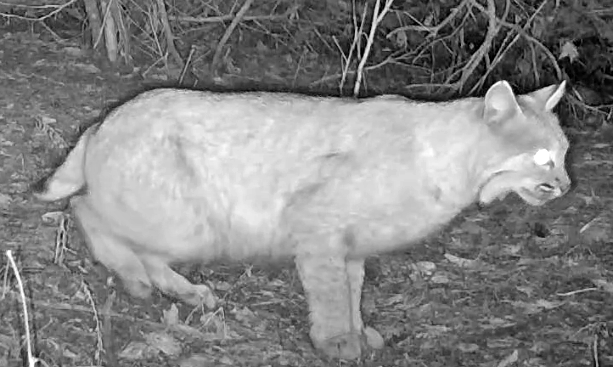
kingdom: Animalia
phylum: Chordata
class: Mammalia
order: Carnivora
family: Felidae
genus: Lynx
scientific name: Lynx rufus
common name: Bobcat
